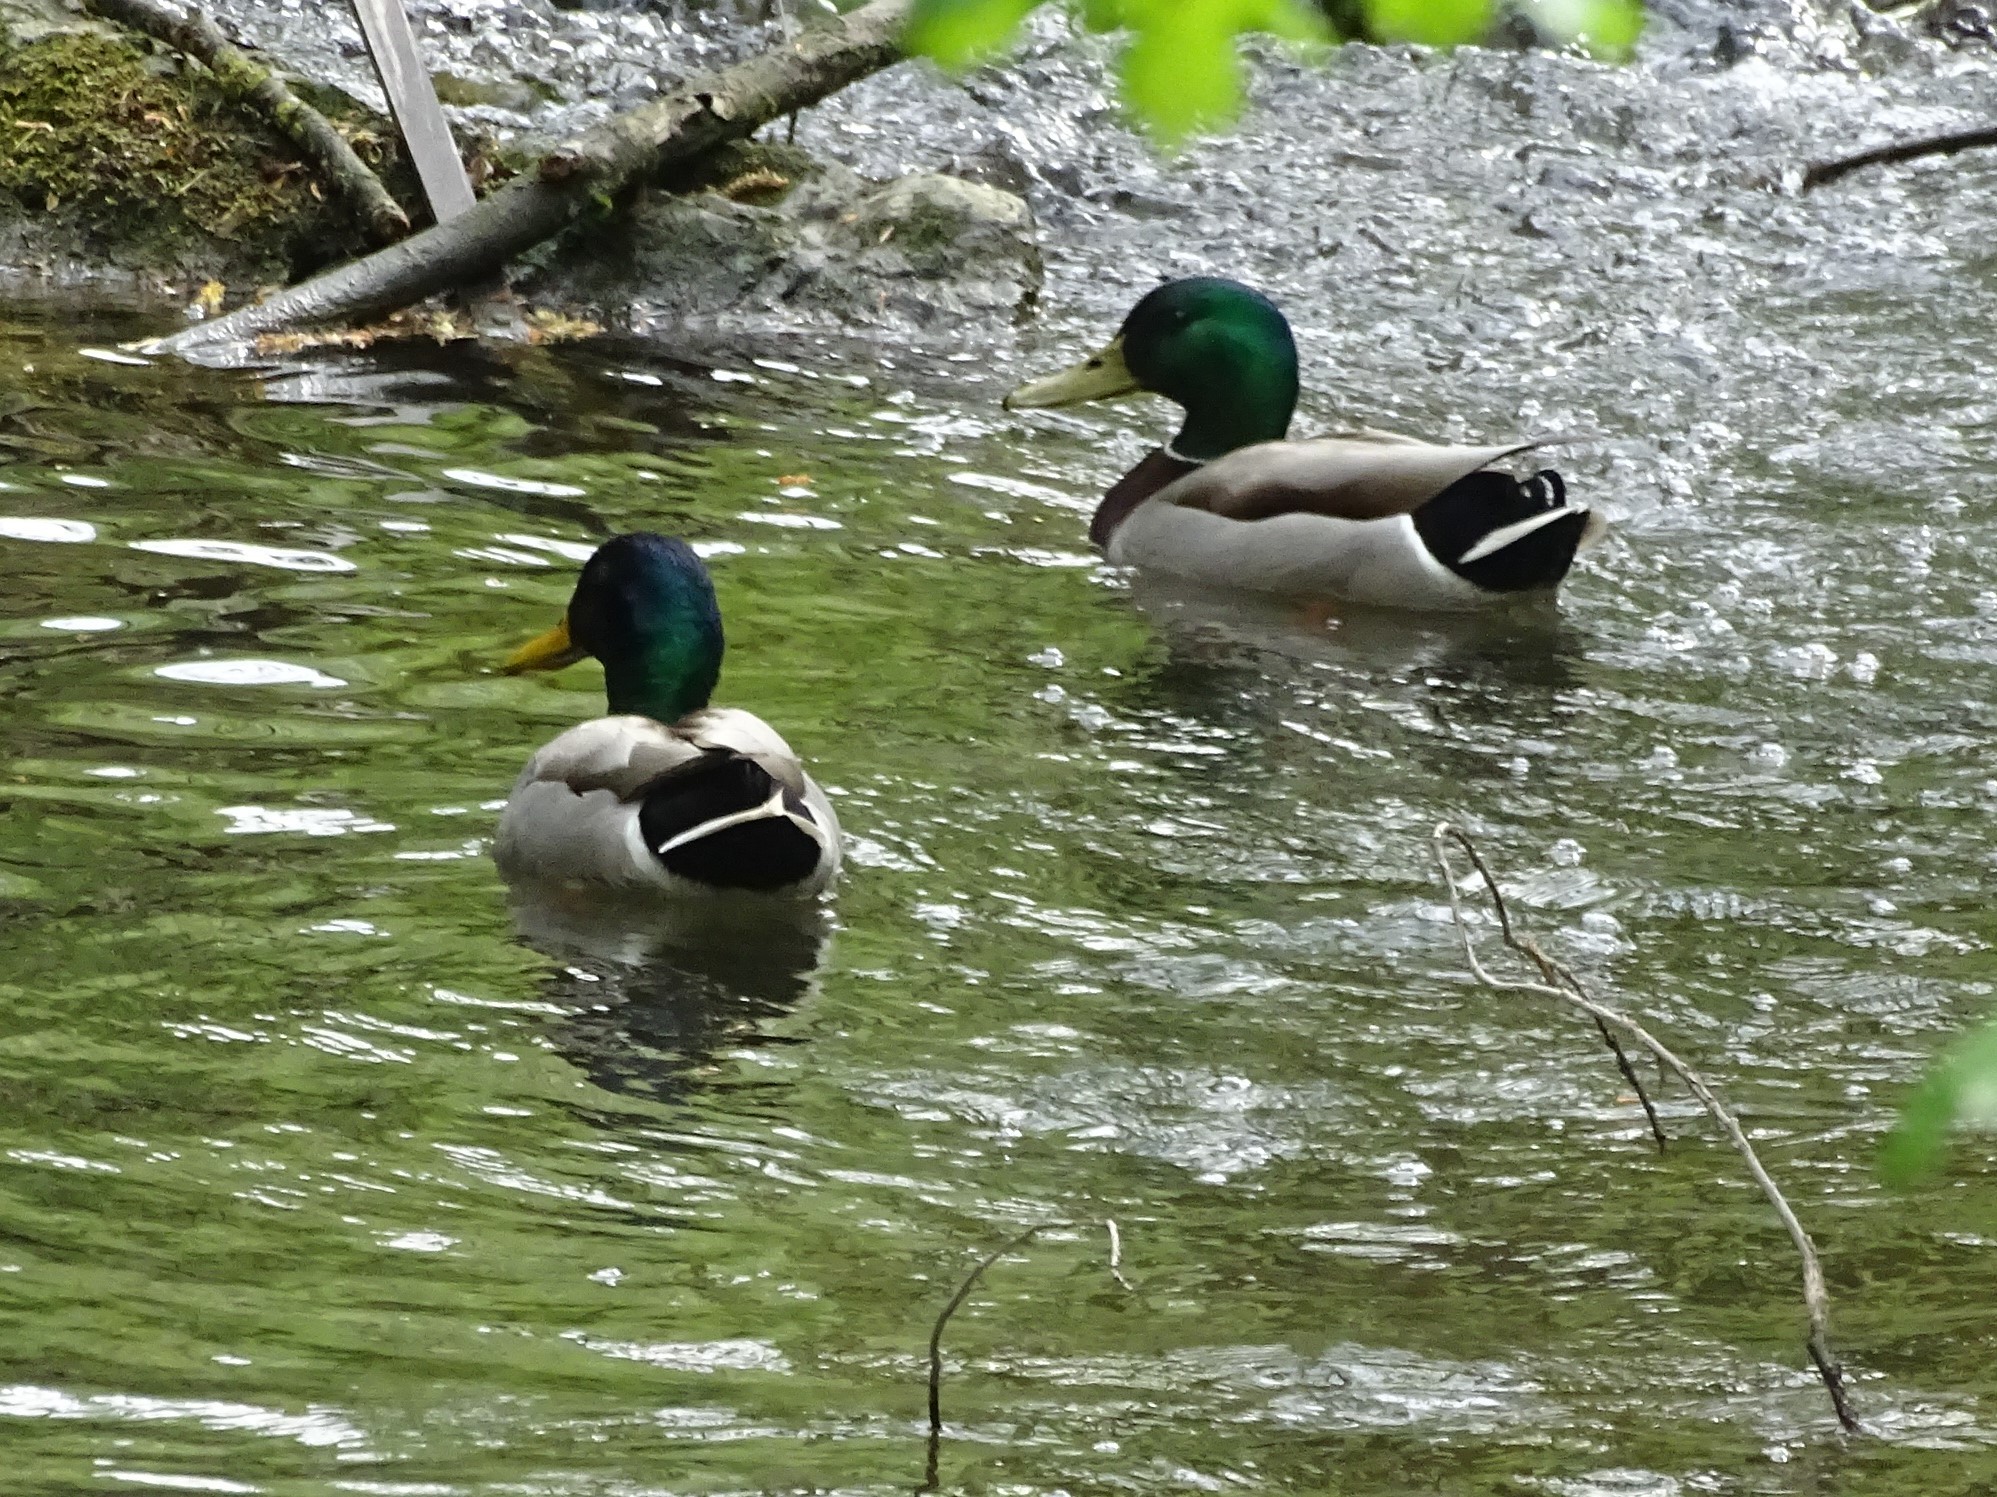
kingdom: Animalia
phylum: Chordata
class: Aves
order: Anseriformes
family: Anatidae
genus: Anas
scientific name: Anas platyrhynchos
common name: Mallard
